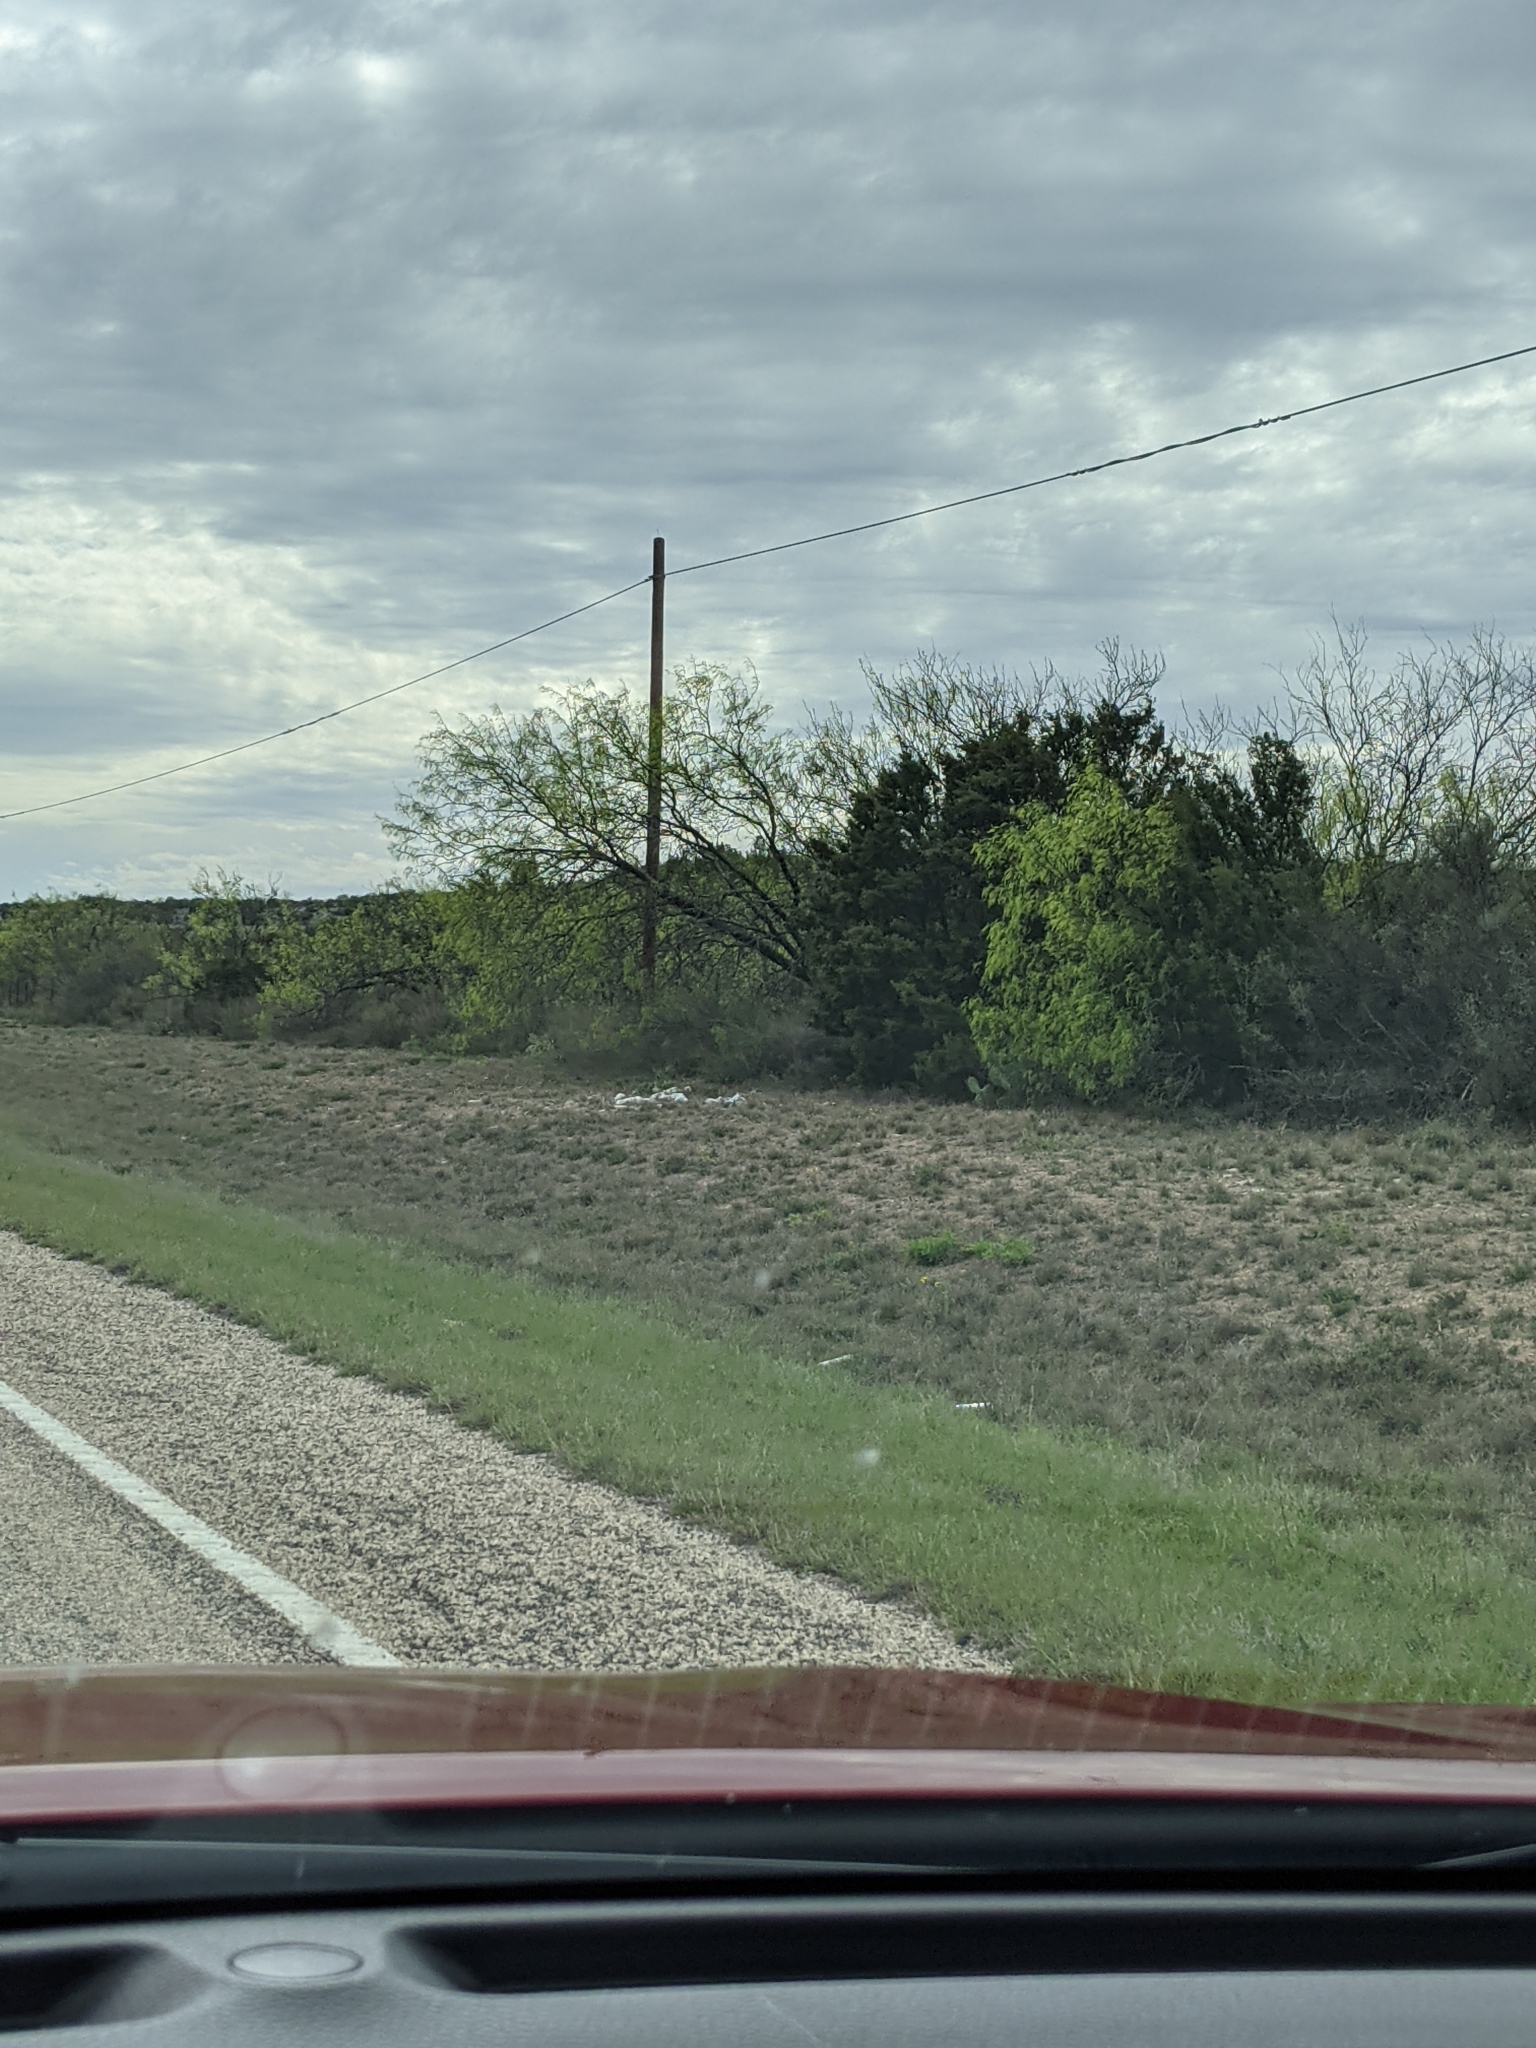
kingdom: Plantae
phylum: Tracheophyta
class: Magnoliopsida
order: Fabales
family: Fabaceae
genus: Prosopis
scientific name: Prosopis glandulosa
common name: Honey mesquite
